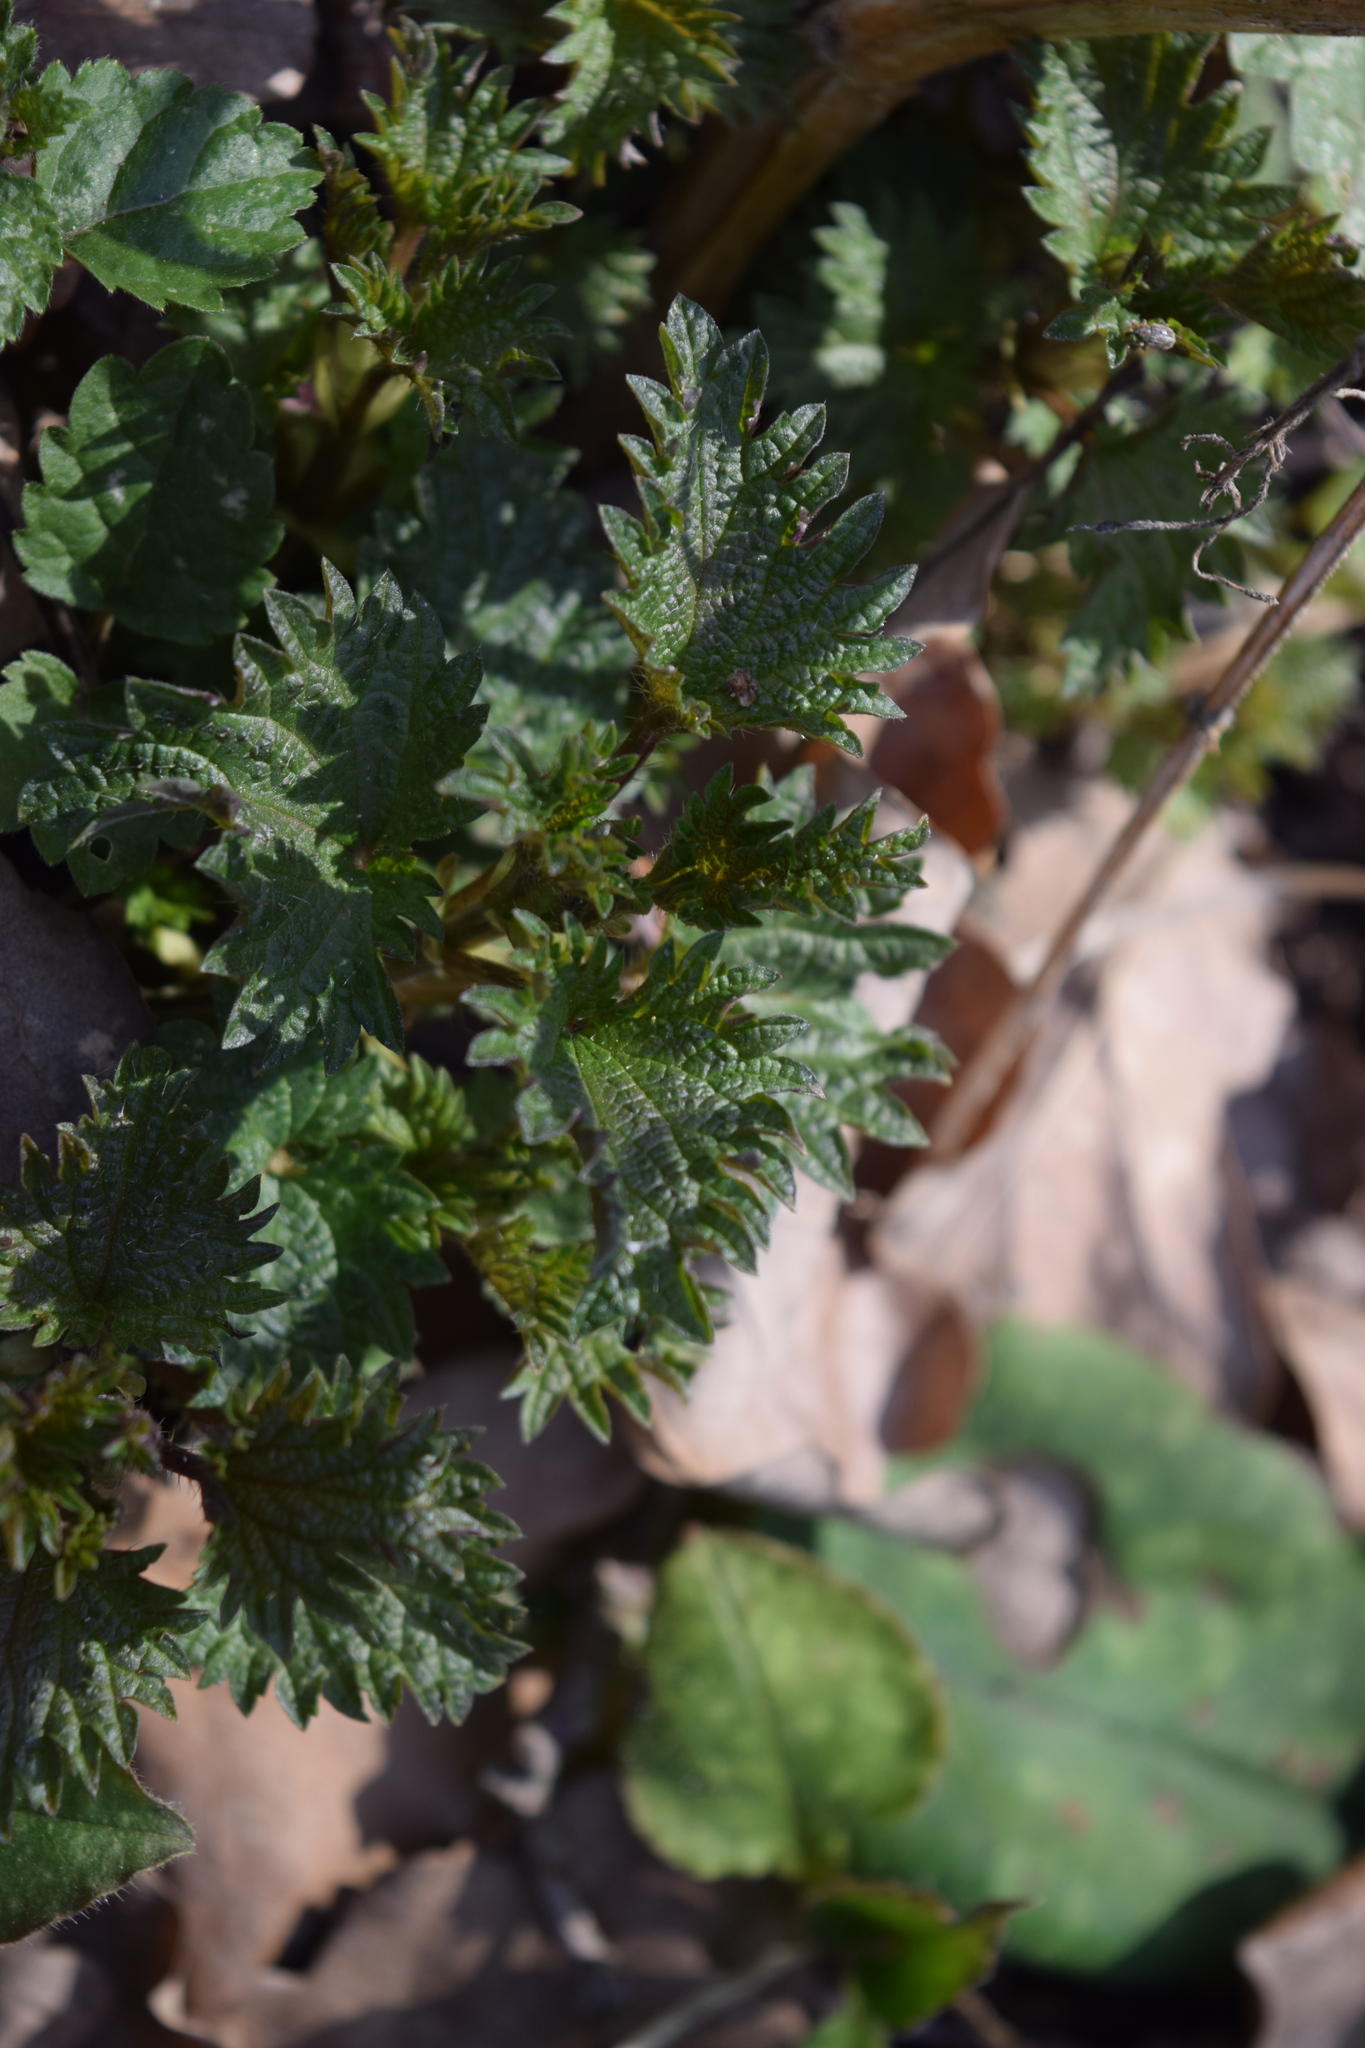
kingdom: Plantae
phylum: Tracheophyta
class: Magnoliopsida
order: Rosales
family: Urticaceae
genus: Urtica
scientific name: Urtica dioica
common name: Common nettle
